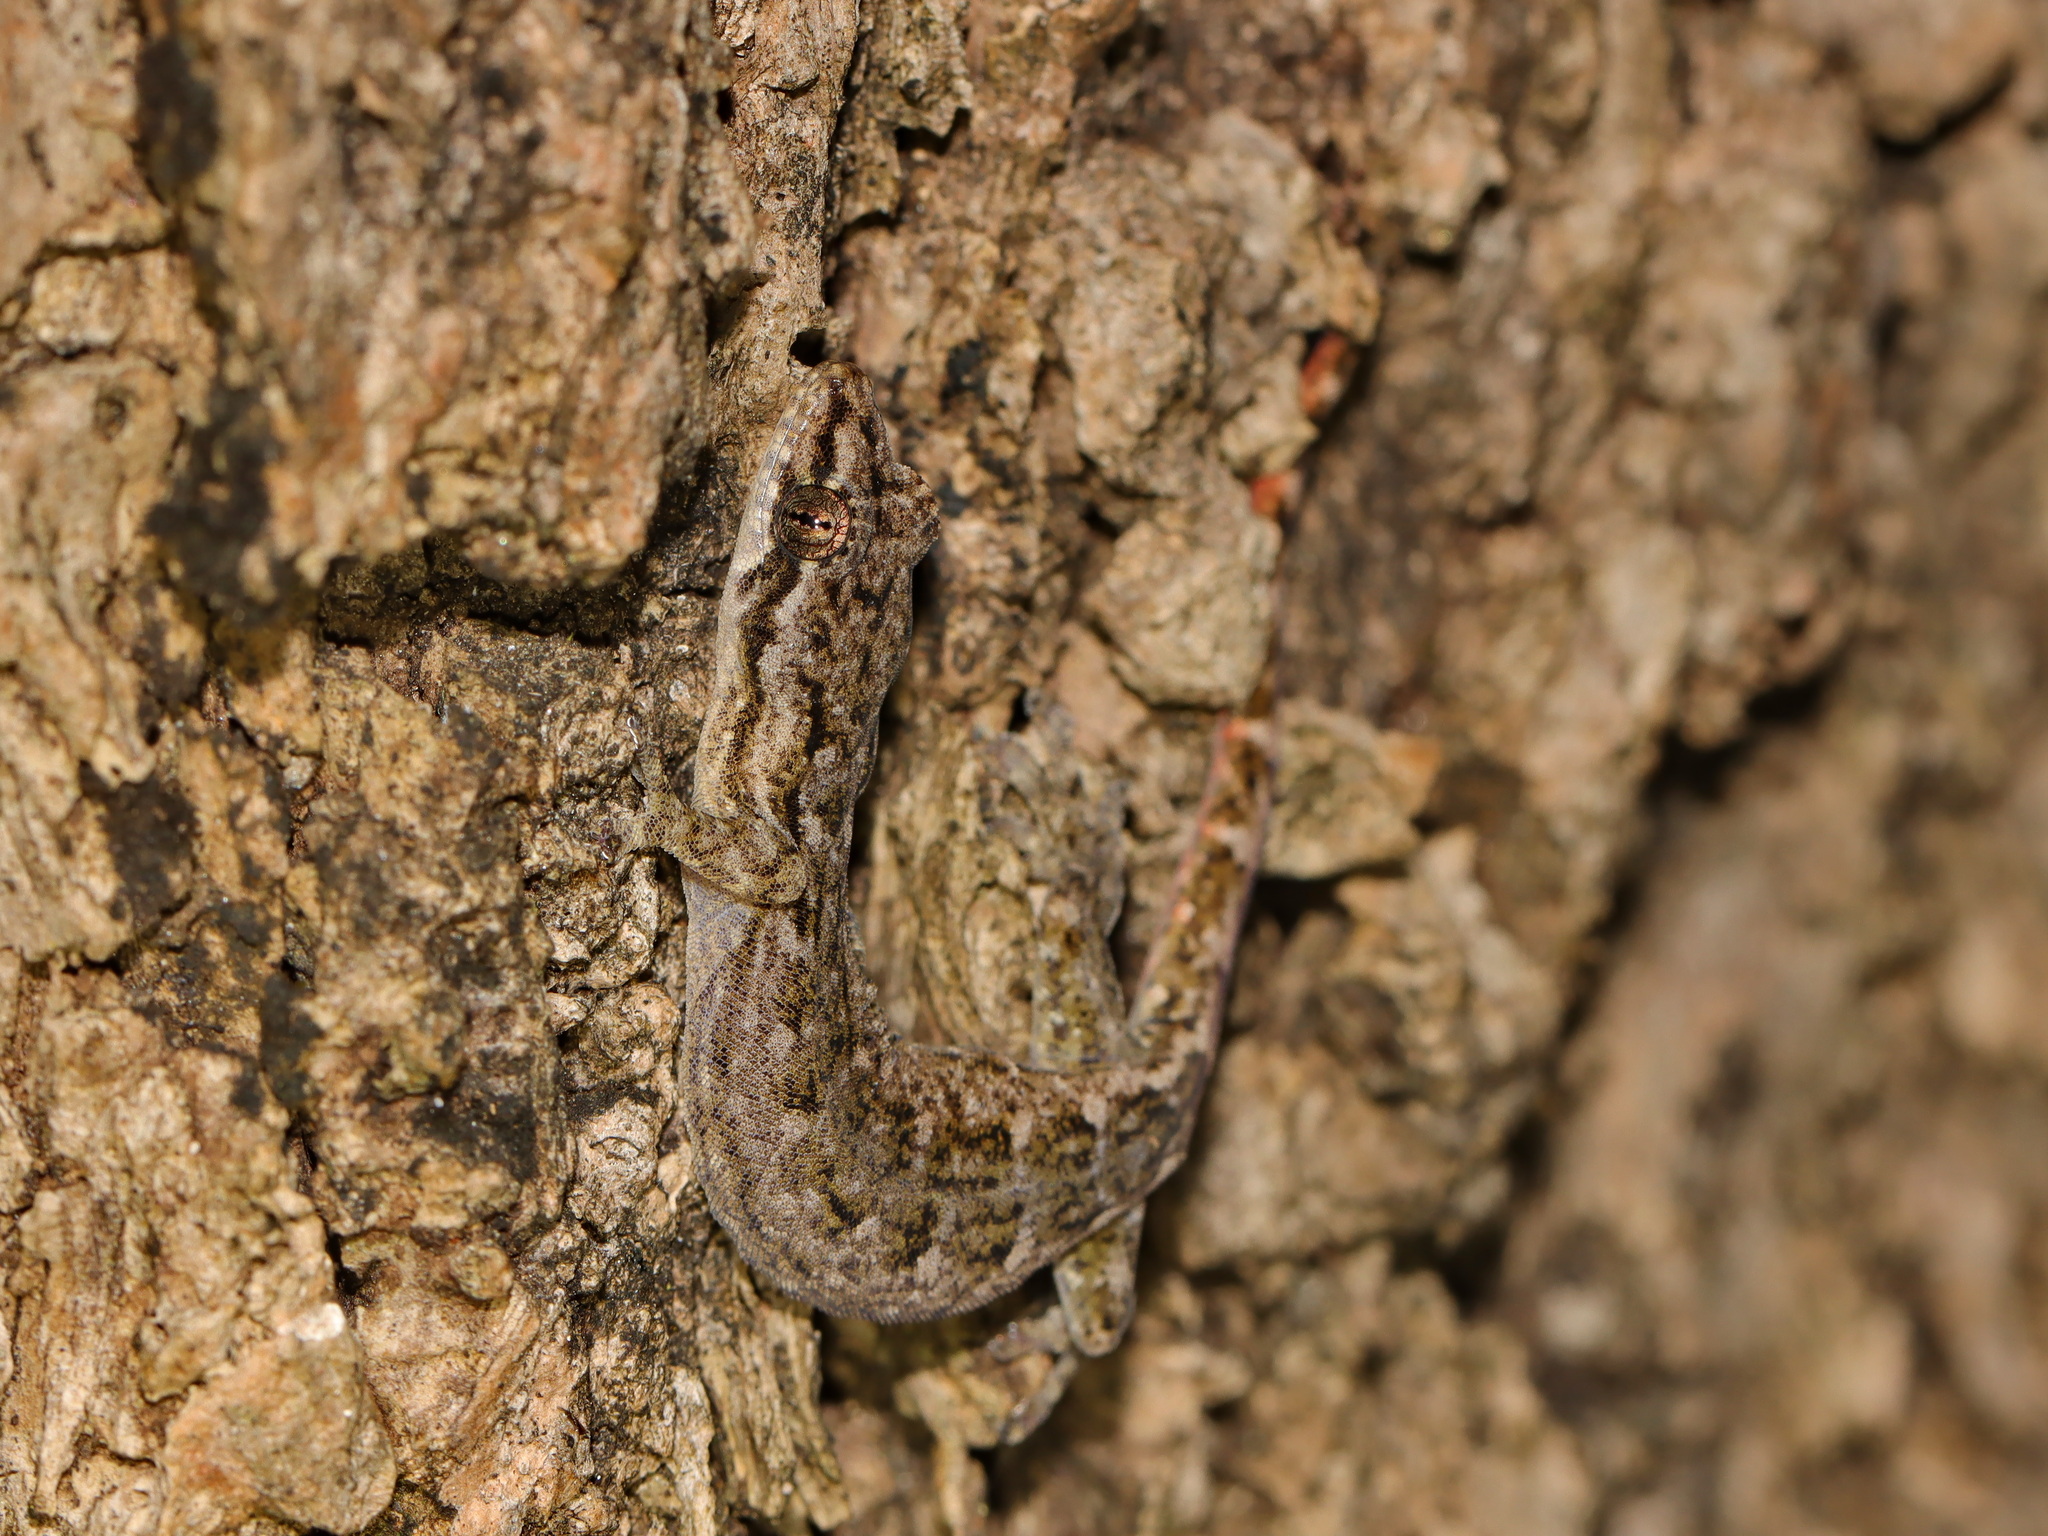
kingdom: Animalia
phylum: Chordata
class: Squamata
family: Gekkonidae
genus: Hemiphyllodactylus
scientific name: Hemiphyllodactylus khlonglanensis
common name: Khlong lan dwarf gecko
